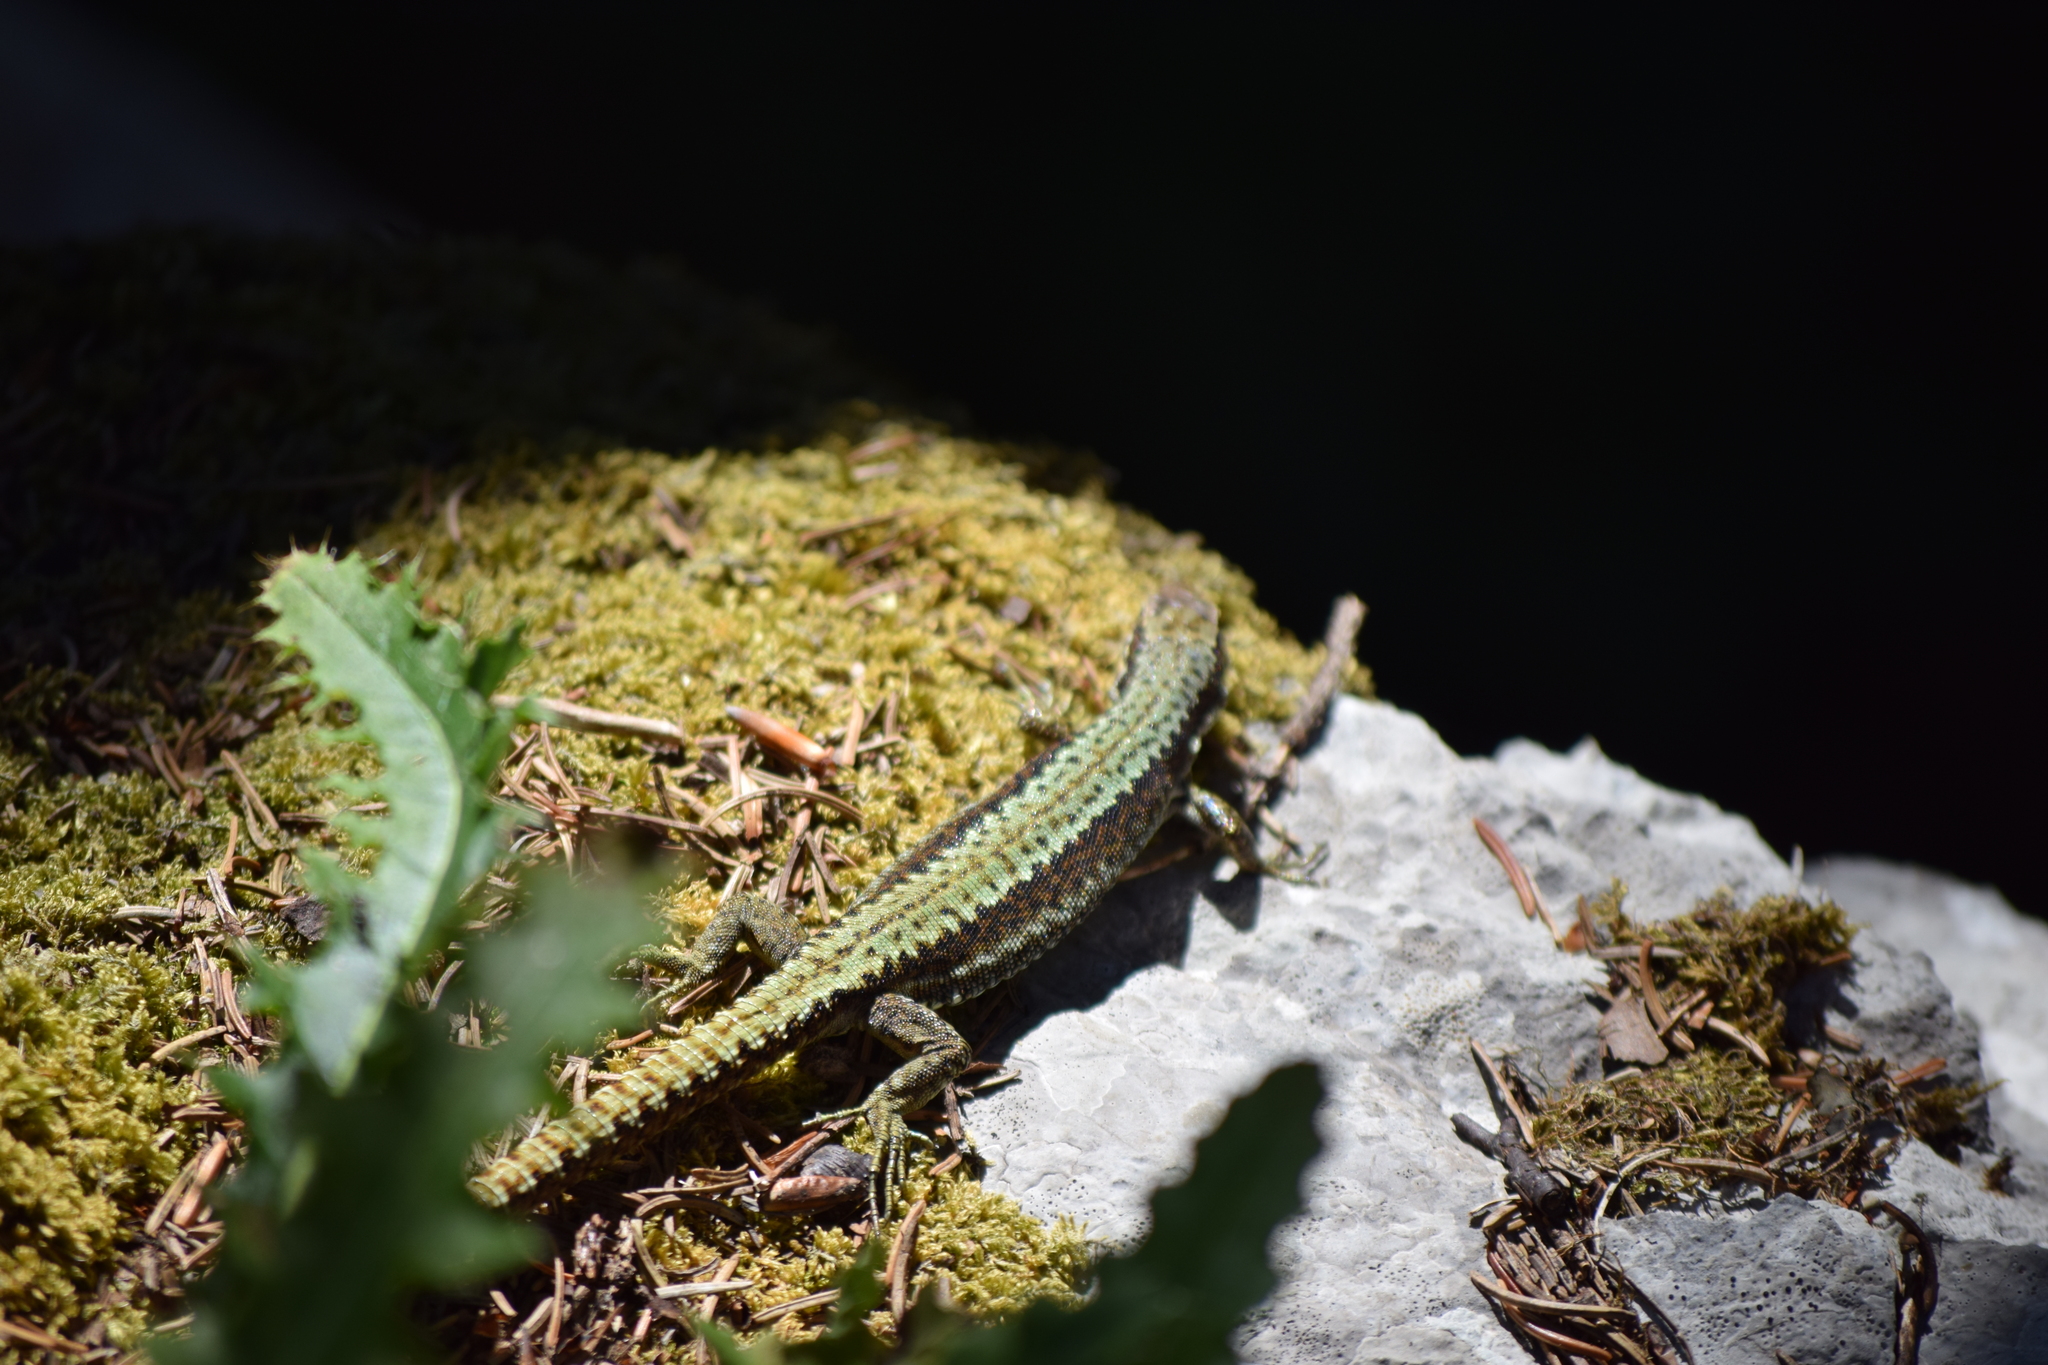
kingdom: Animalia
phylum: Chordata
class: Squamata
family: Lacertidae
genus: Iberolacerta
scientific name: Iberolacerta horvathi
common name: Horvath's rock lizard
